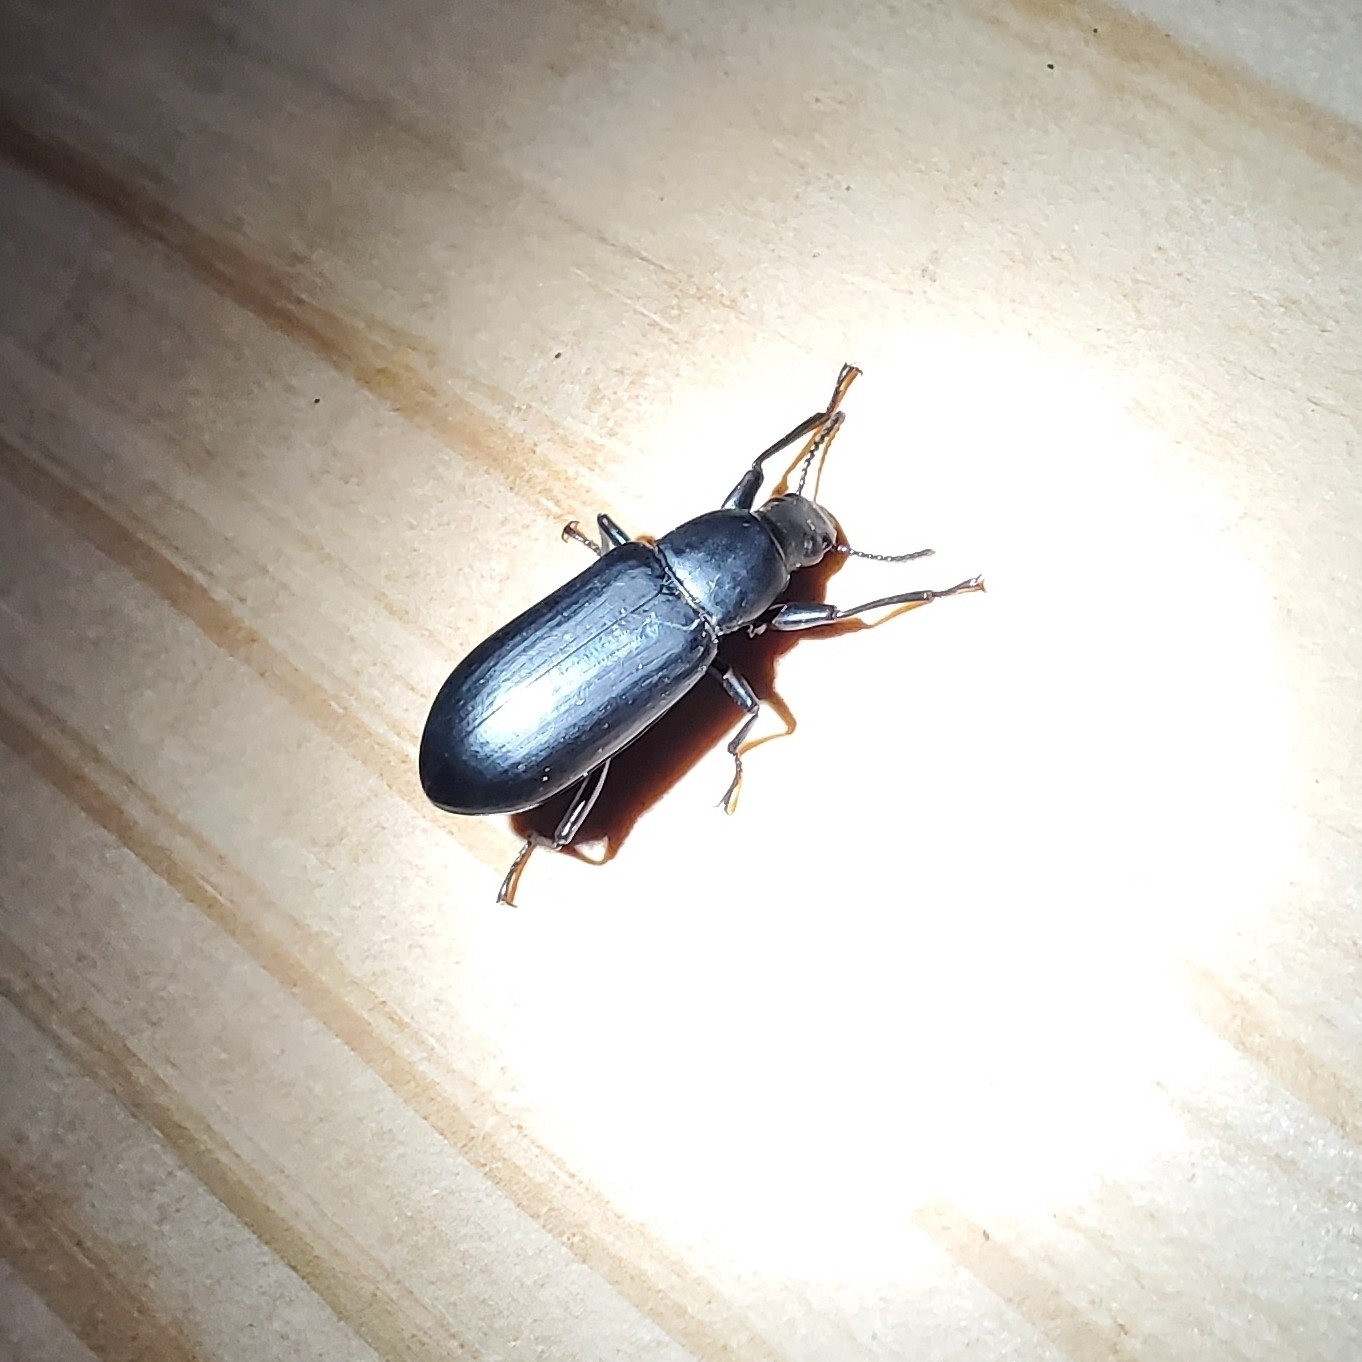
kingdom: Animalia
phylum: Arthropoda
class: Insecta
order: Coleoptera
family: Tenebrionidae
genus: Alobates
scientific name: Alobates
